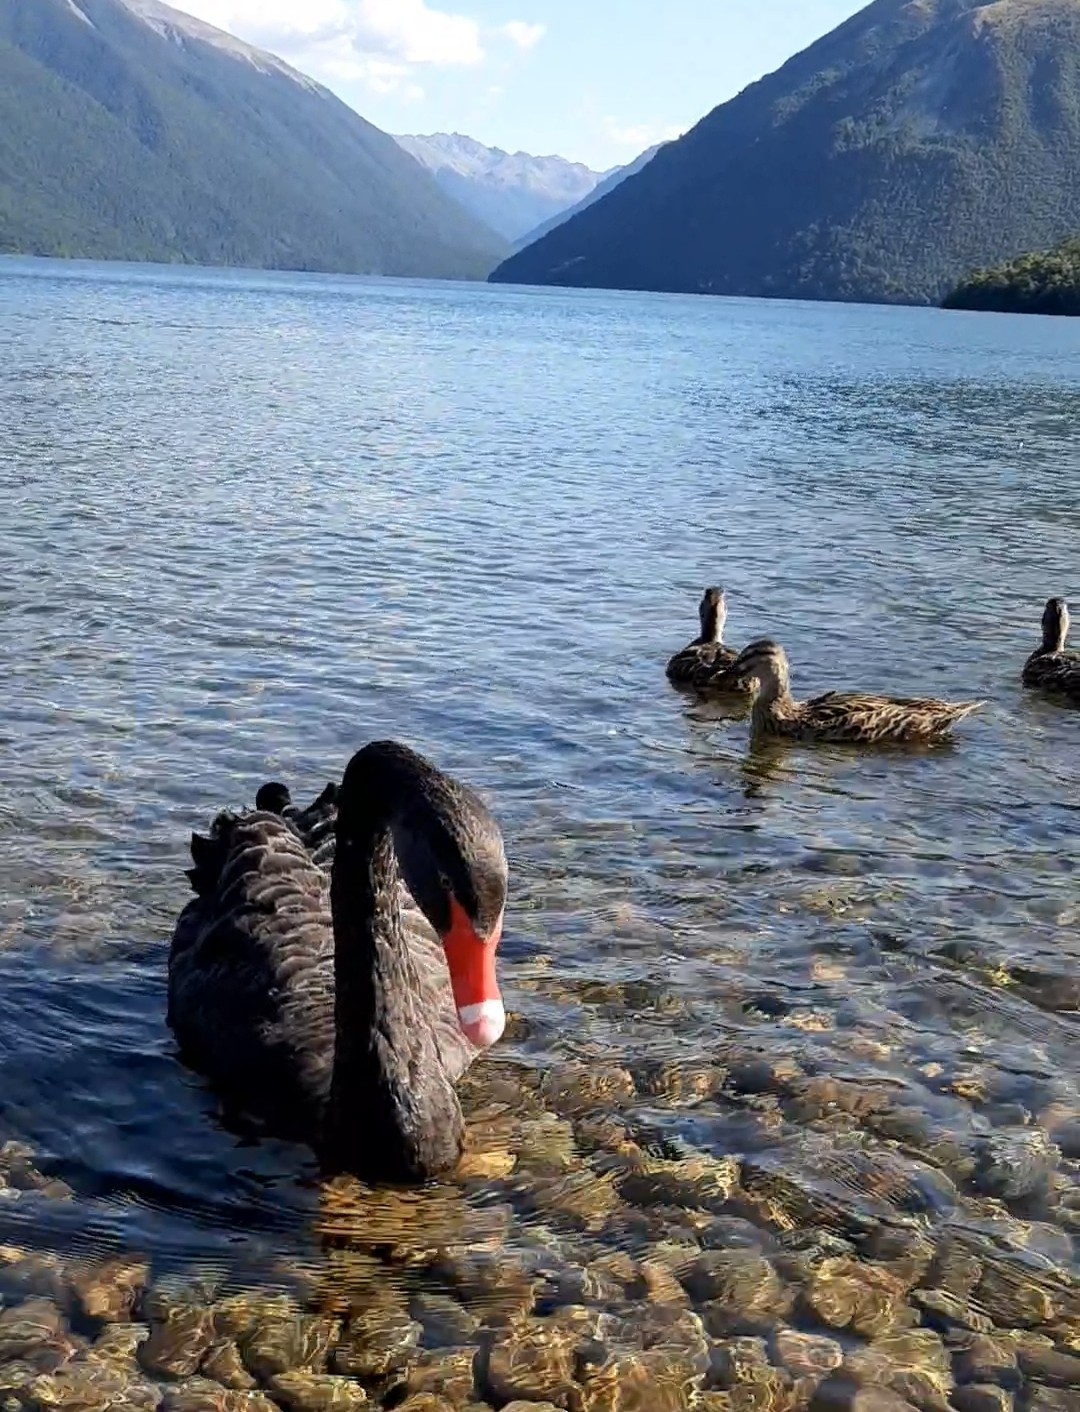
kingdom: Animalia
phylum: Chordata
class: Aves
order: Anseriformes
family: Anatidae
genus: Cygnus
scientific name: Cygnus atratus
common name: Black swan
